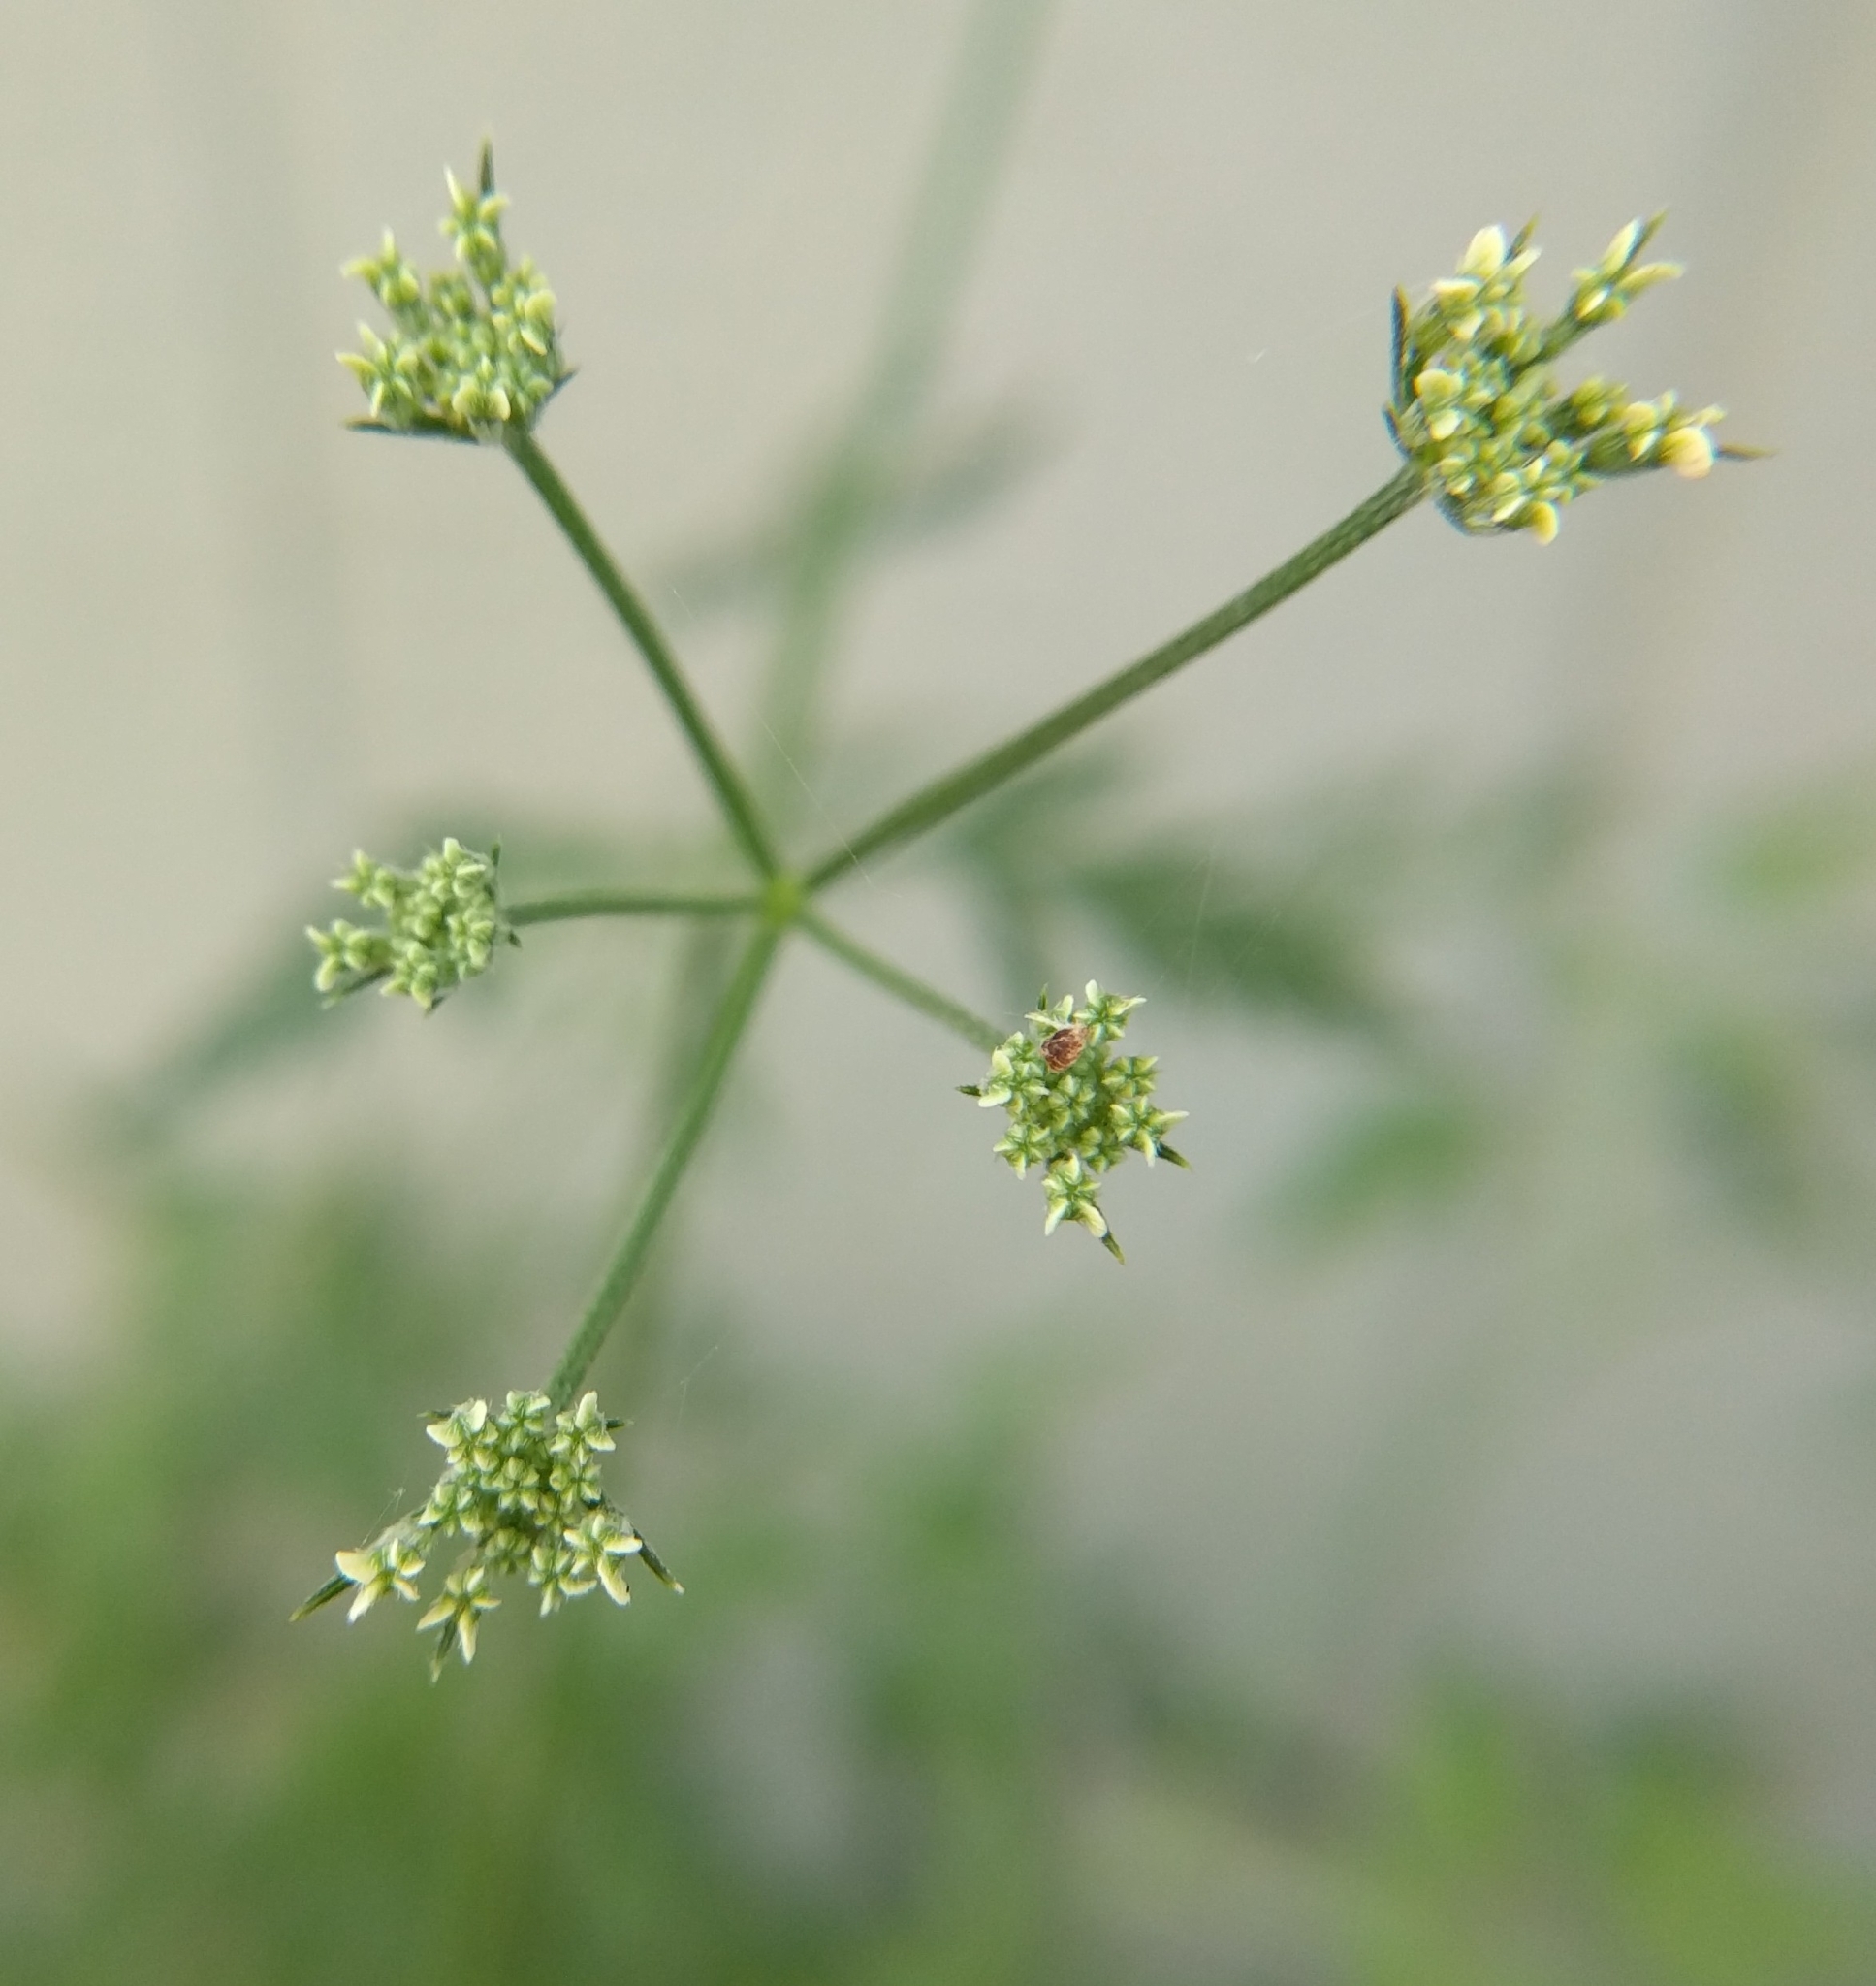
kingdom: Plantae
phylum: Tracheophyta
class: Magnoliopsida
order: Apiales
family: Apiaceae
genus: Torilis
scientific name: Torilis arvensis
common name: Spreading hedge-parsley
